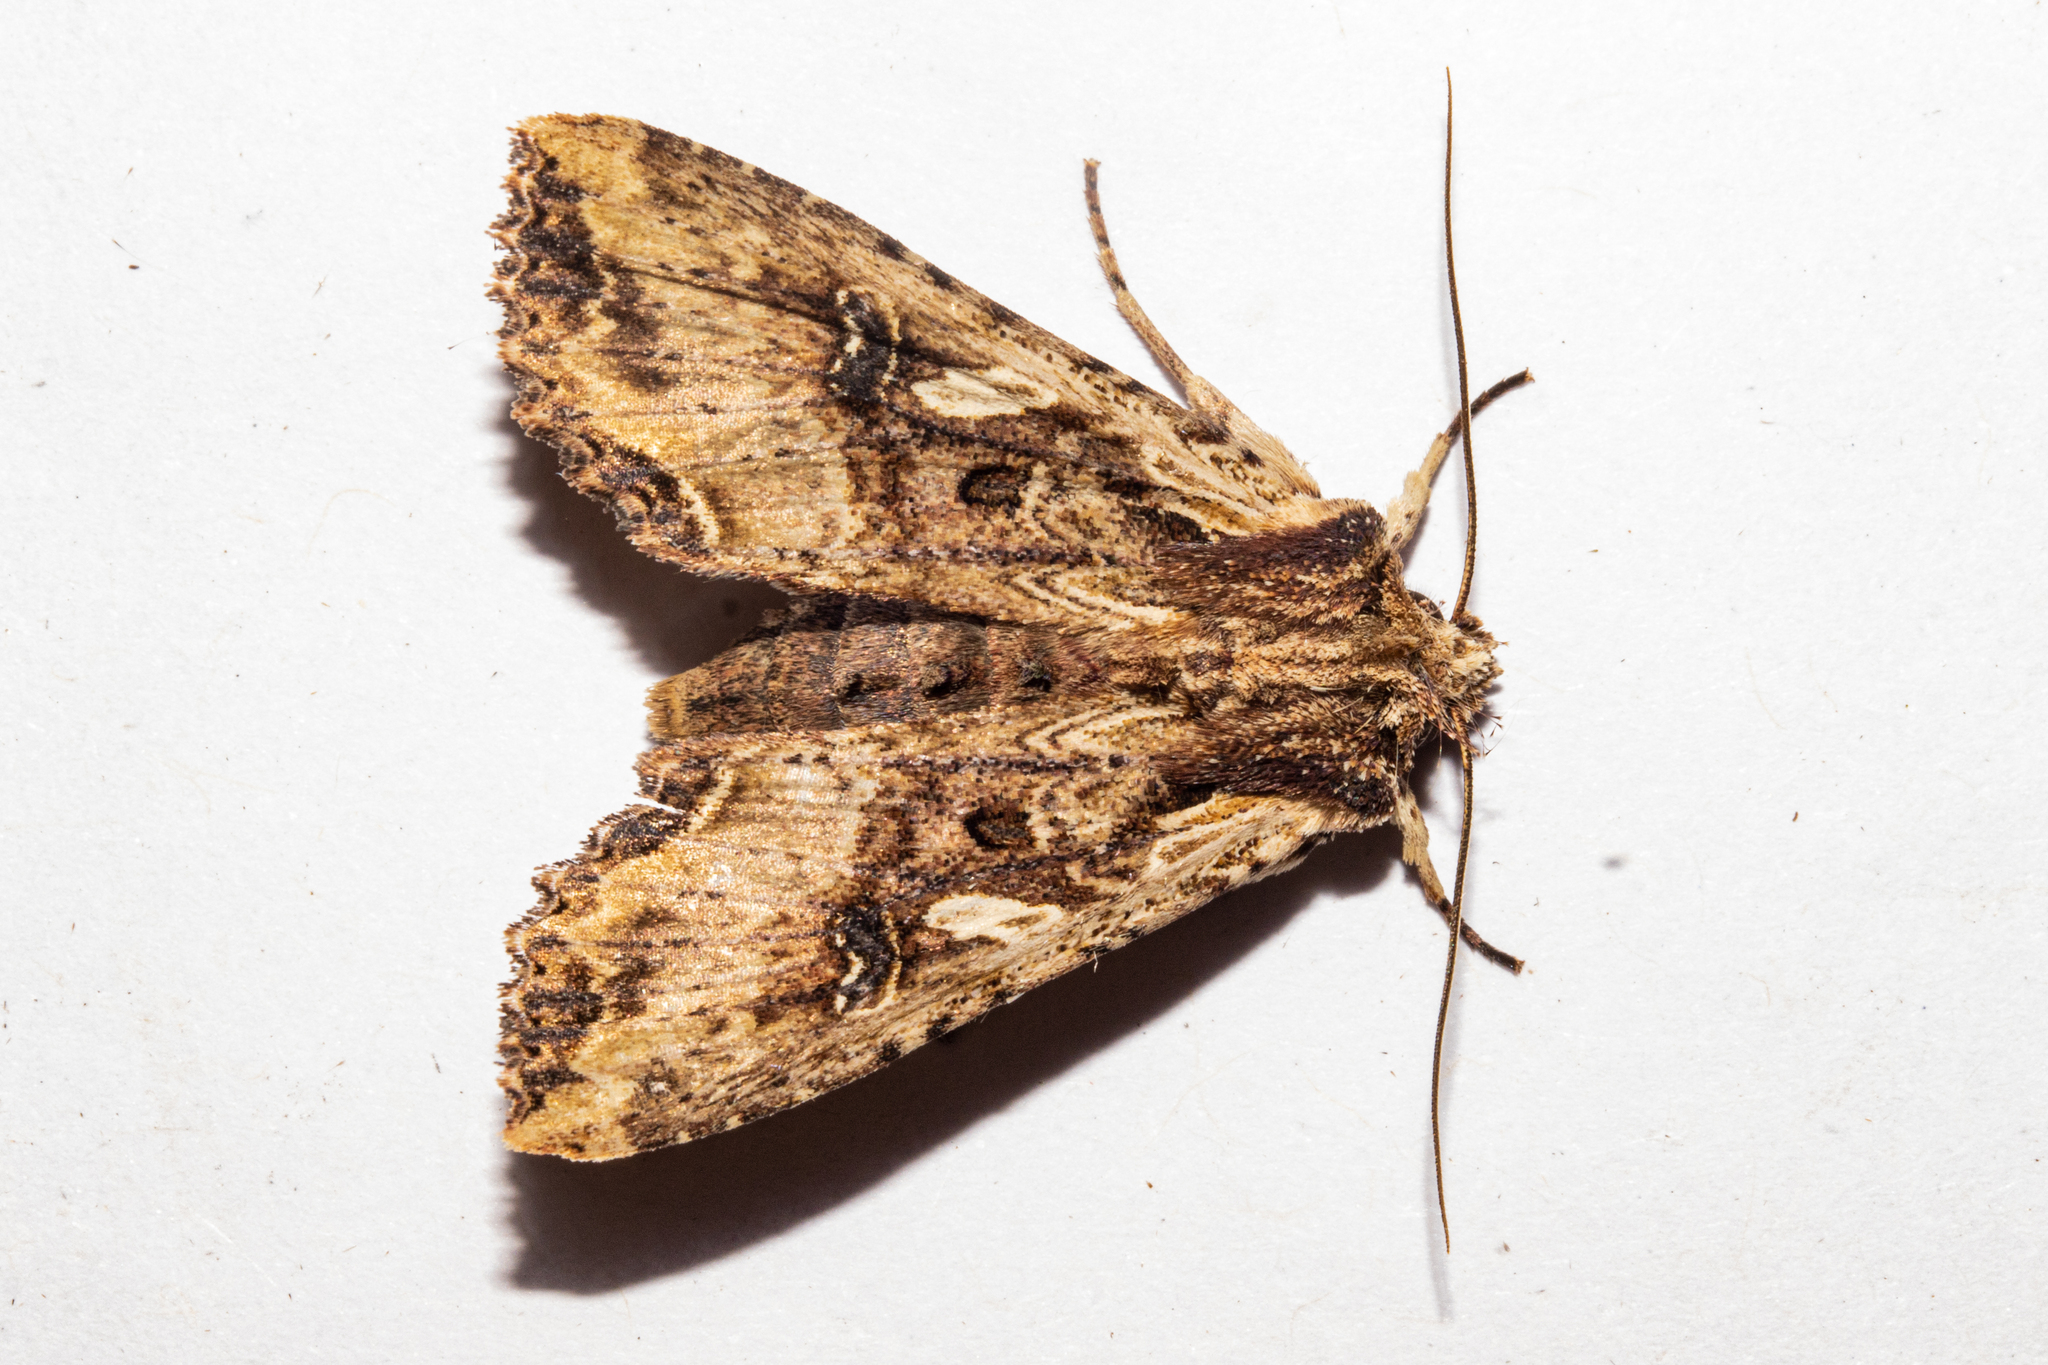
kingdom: Animalia
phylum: Arthropoda
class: Insecta
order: Lepidoptera
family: Noctuidae
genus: Meterana
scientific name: Meterana stipata
